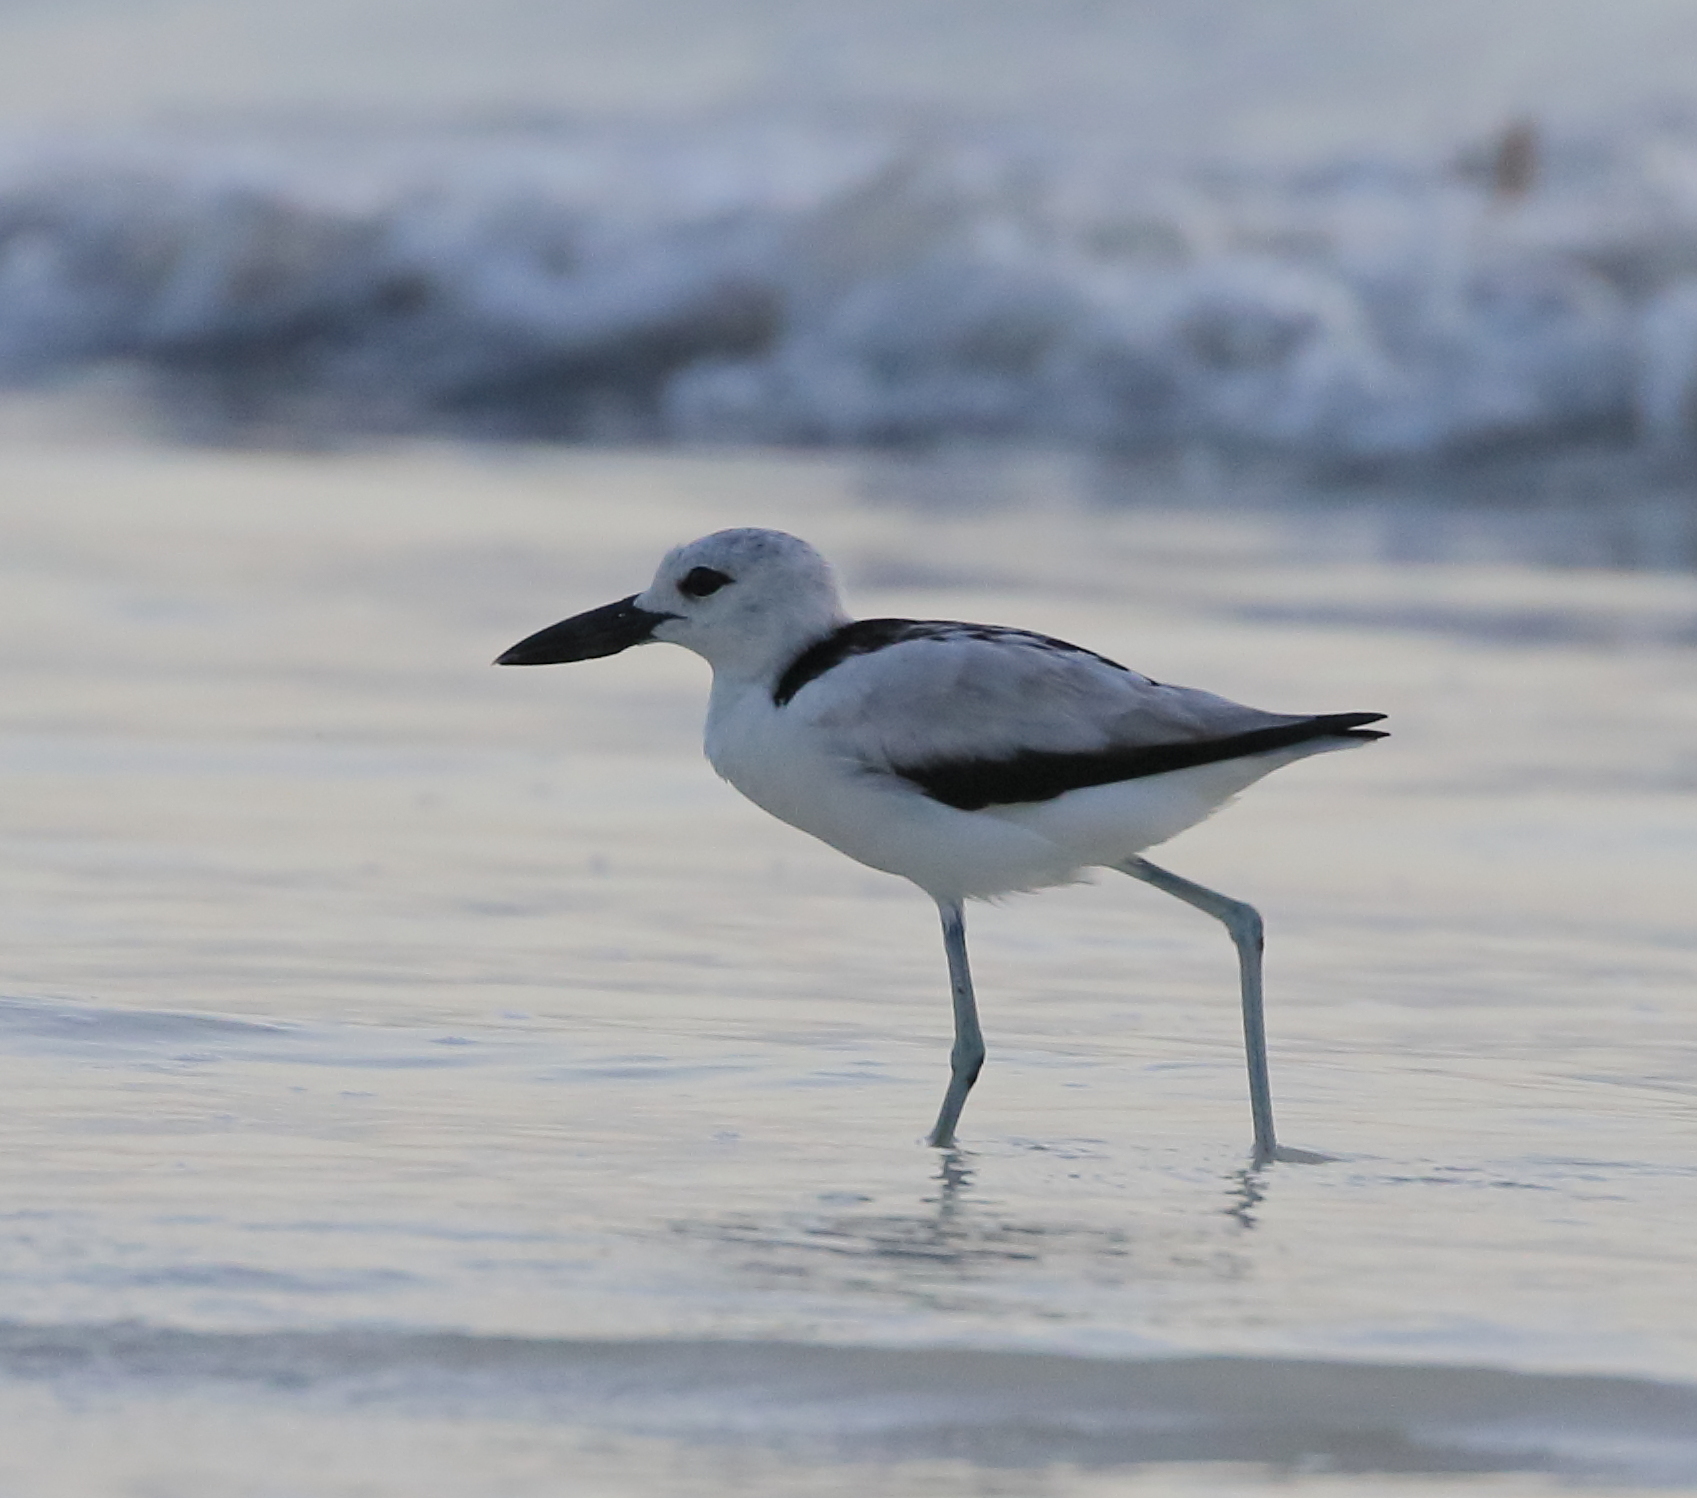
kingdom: Animalia
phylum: Chordata
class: Aves
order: Charadriiformes
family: Dromadidae
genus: Dromas
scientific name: Dromas ardeola
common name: Crab-plover
